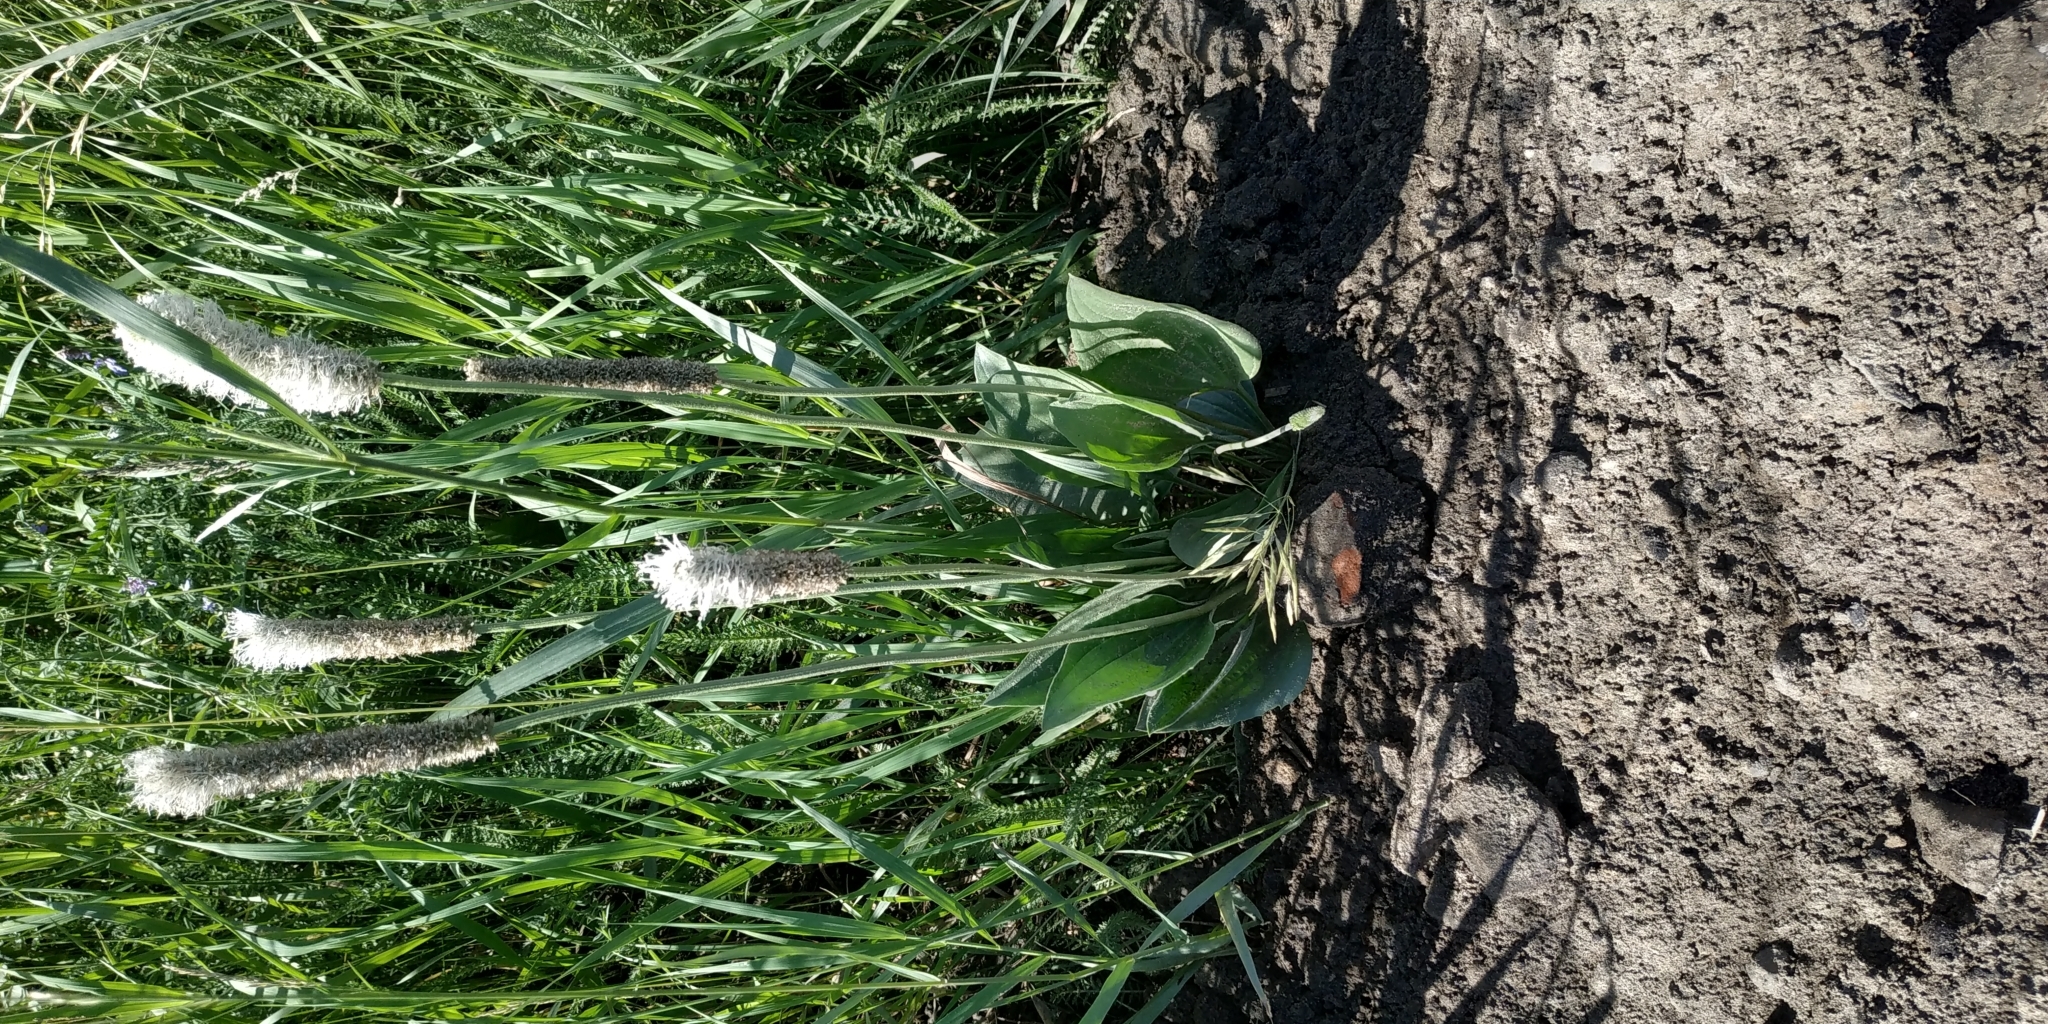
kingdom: Plantae
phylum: Tracheophyta
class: Magnoliopsida
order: Lamiales
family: Plantaginaceae
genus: Plantago
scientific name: Plantago maxima
